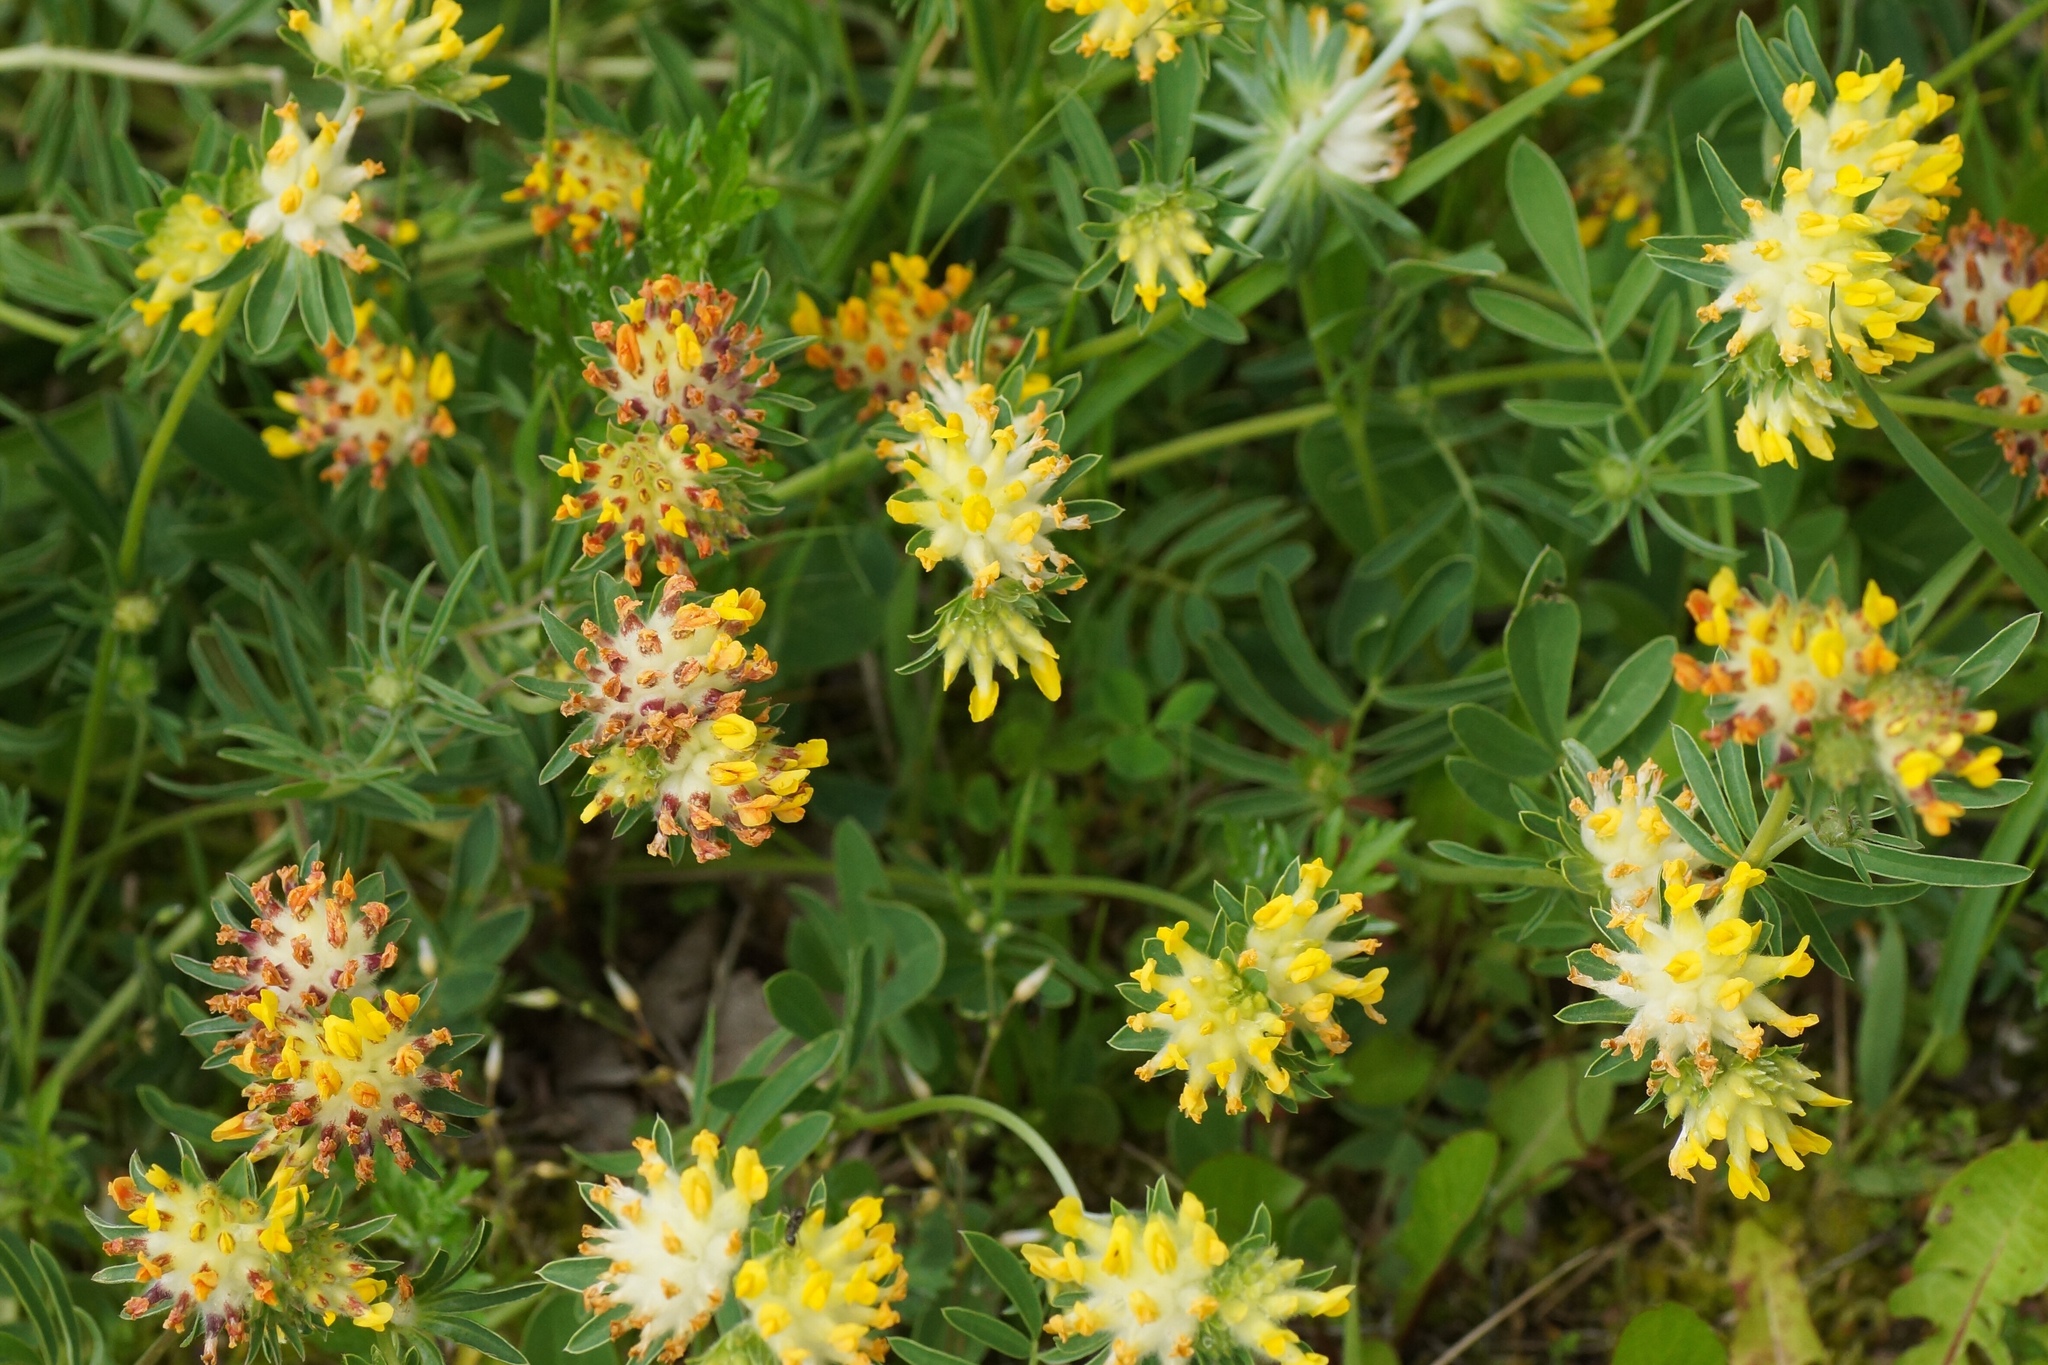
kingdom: Plantae
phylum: Tracheophyta
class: Magnoliopsida
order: Fabales
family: Fabaceae
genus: Anthyllis
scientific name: Anthyllis vulneraria
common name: Kidney vetch
